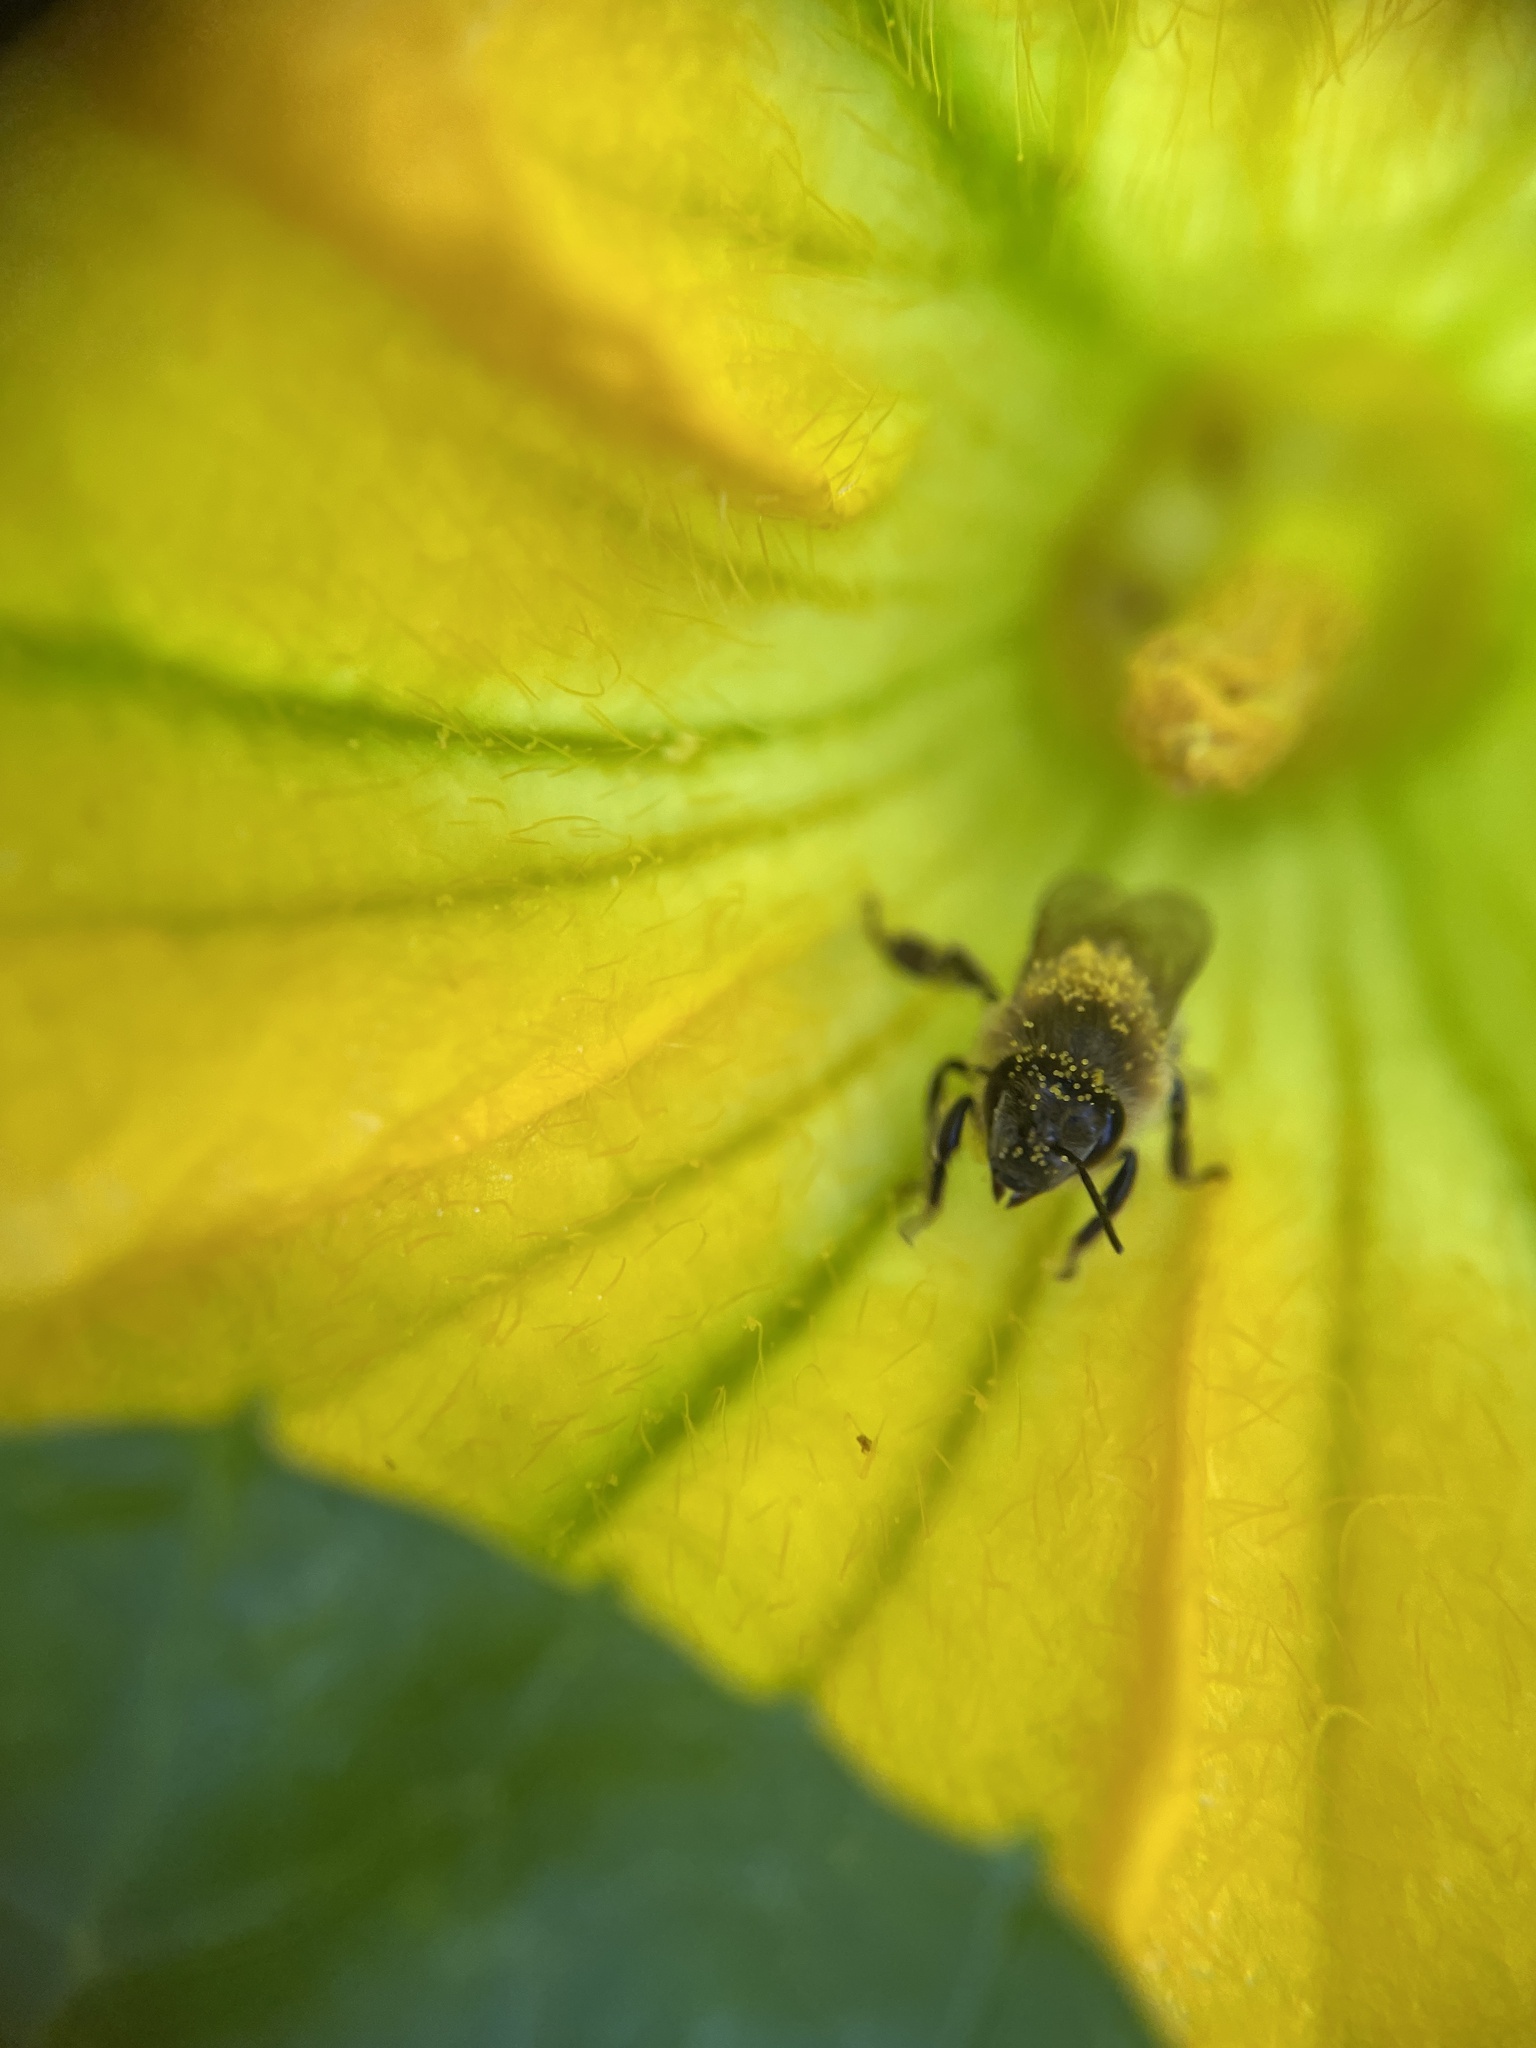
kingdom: Animalia
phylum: Arthropoda
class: Insecta
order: Hymenoptera
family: Apidae
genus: Apis
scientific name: Apis mellifera
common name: Honey bee
